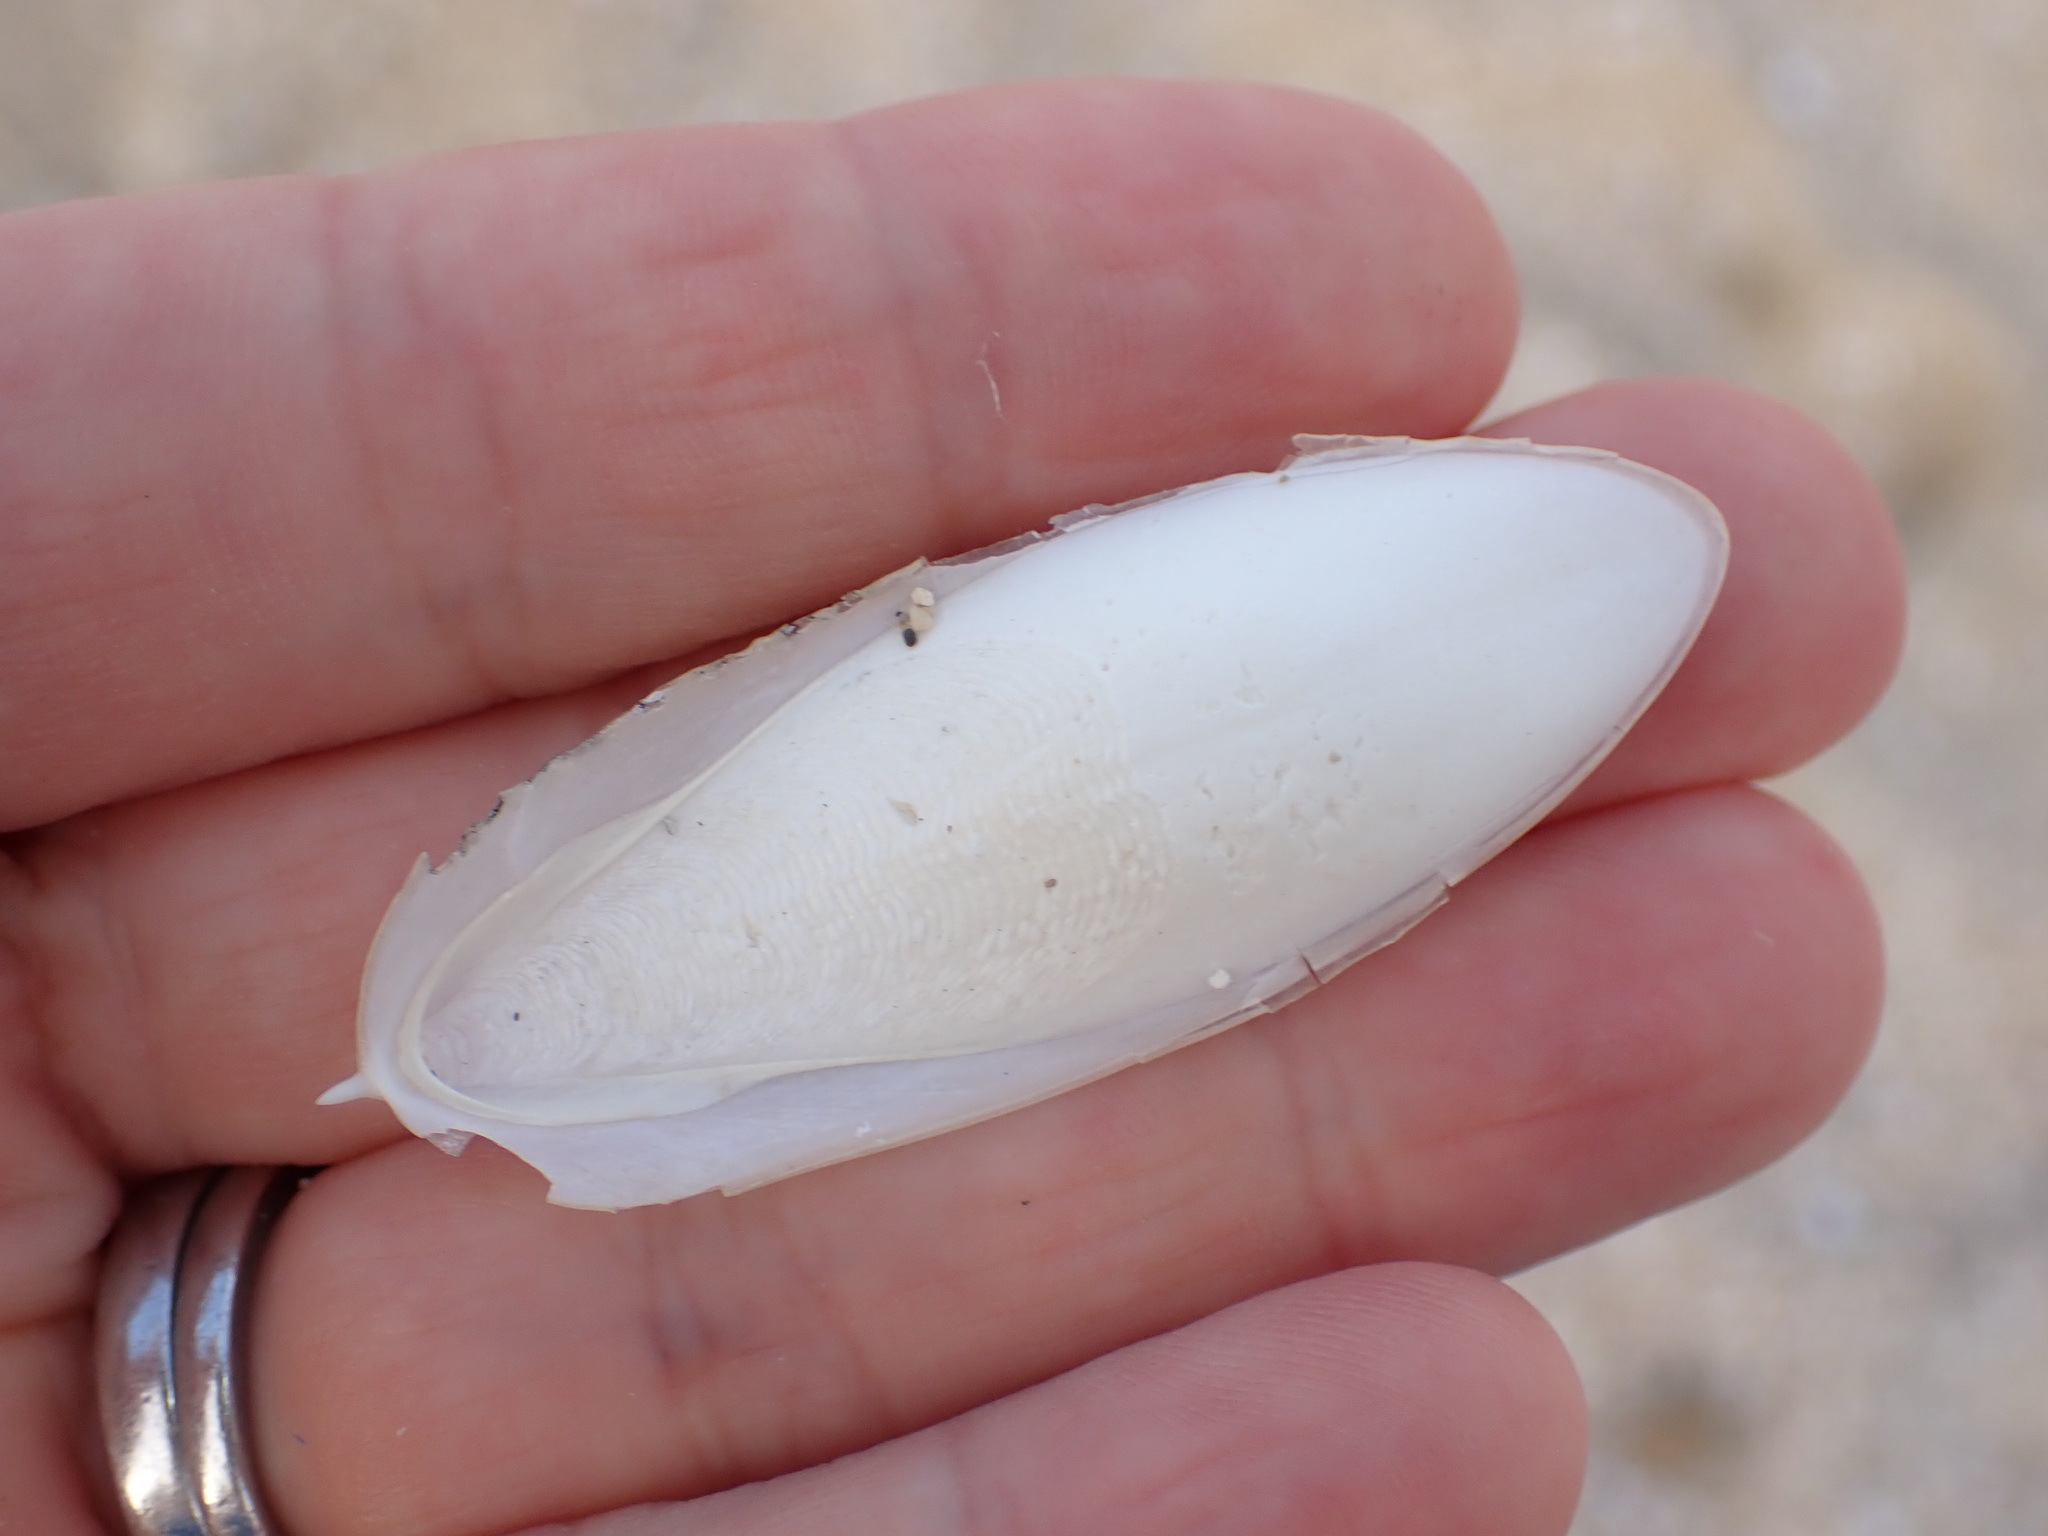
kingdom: Animalia
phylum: Mollusca
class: Cephalopoda
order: Sepiida
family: Sepiidae
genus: Sepia
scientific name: Sepia officinalis
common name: Common cuttlefish
